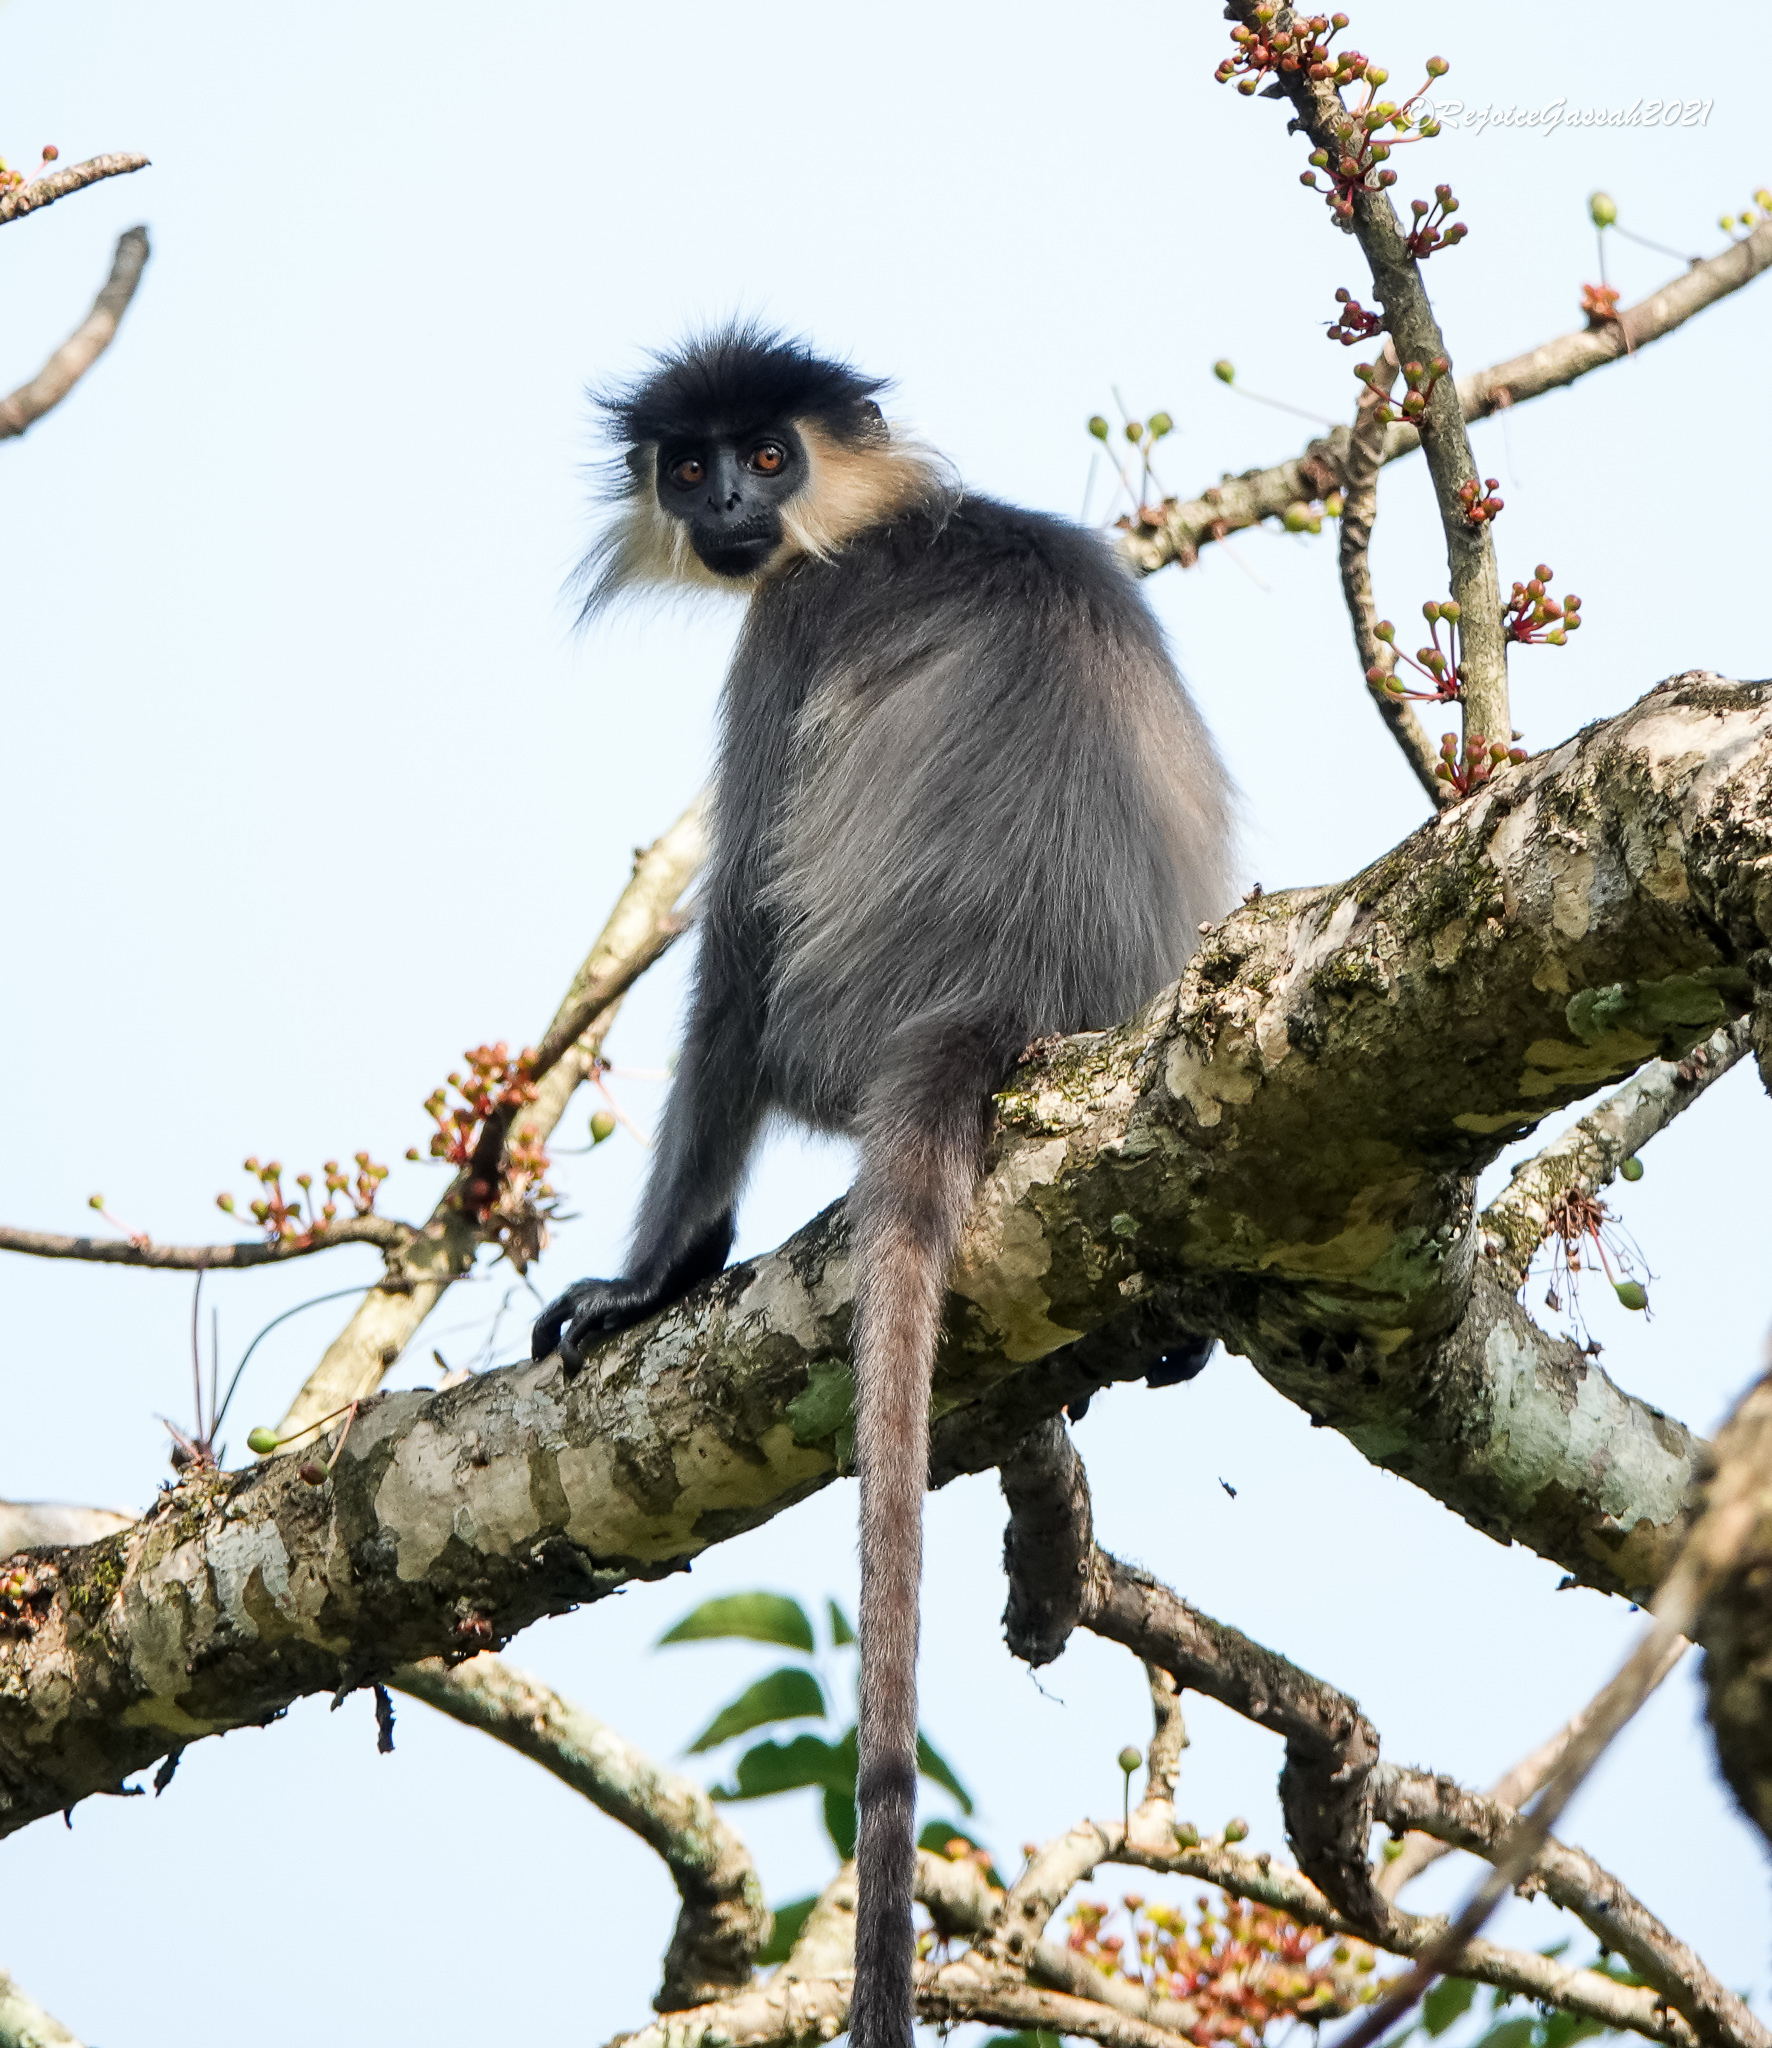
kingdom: Animalia
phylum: Chordata
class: Mammalia
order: Primates
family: Cercopithecidae
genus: Trachypithecus
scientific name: Trachypithecus pileatus
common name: Capped langur
